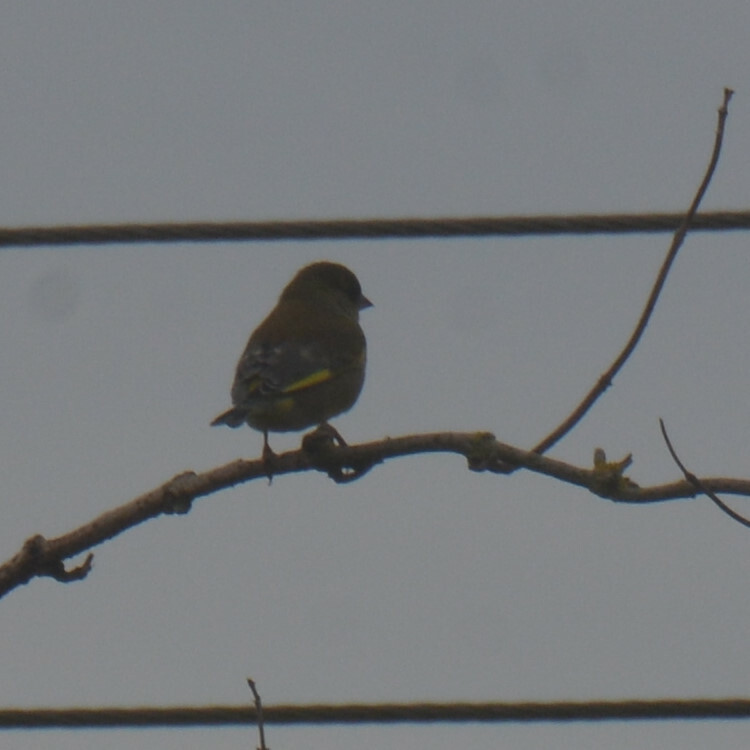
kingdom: Plantae
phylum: Tracheophyta
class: Liliopsida
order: Poales
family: Poaceae
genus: Chloris
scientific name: Chloris chloris
